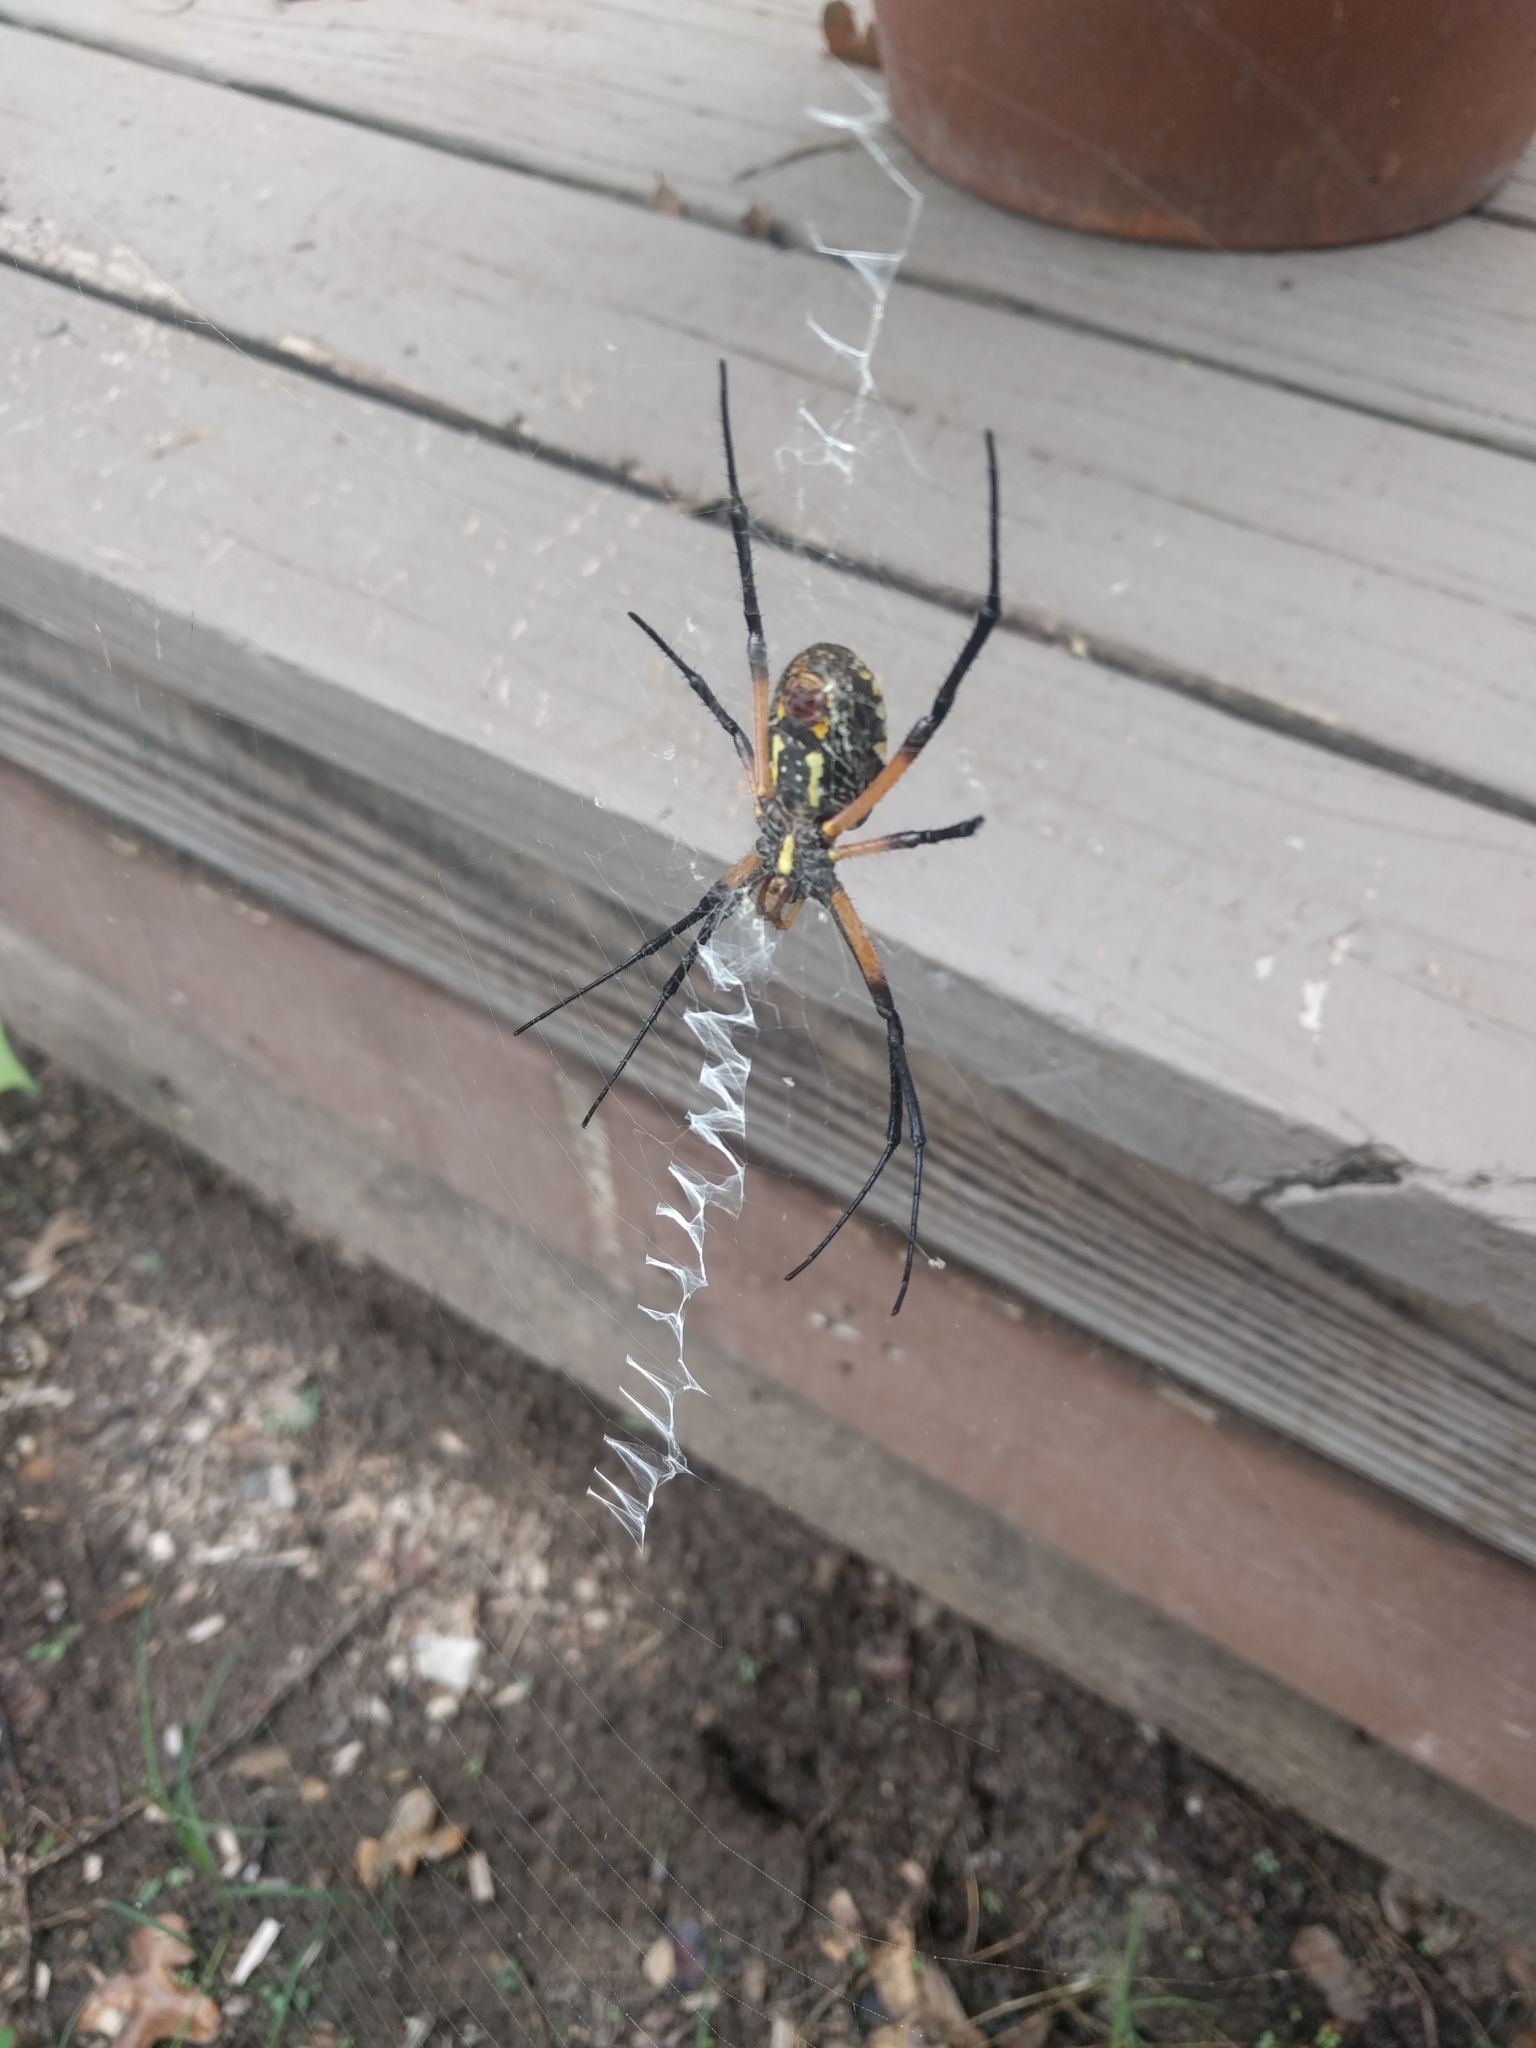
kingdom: Animalia
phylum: Arthropoda
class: Arachnida
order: Araneae
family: Araneidae
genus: Argiope
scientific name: Argiope aurantia
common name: Orb weavers
